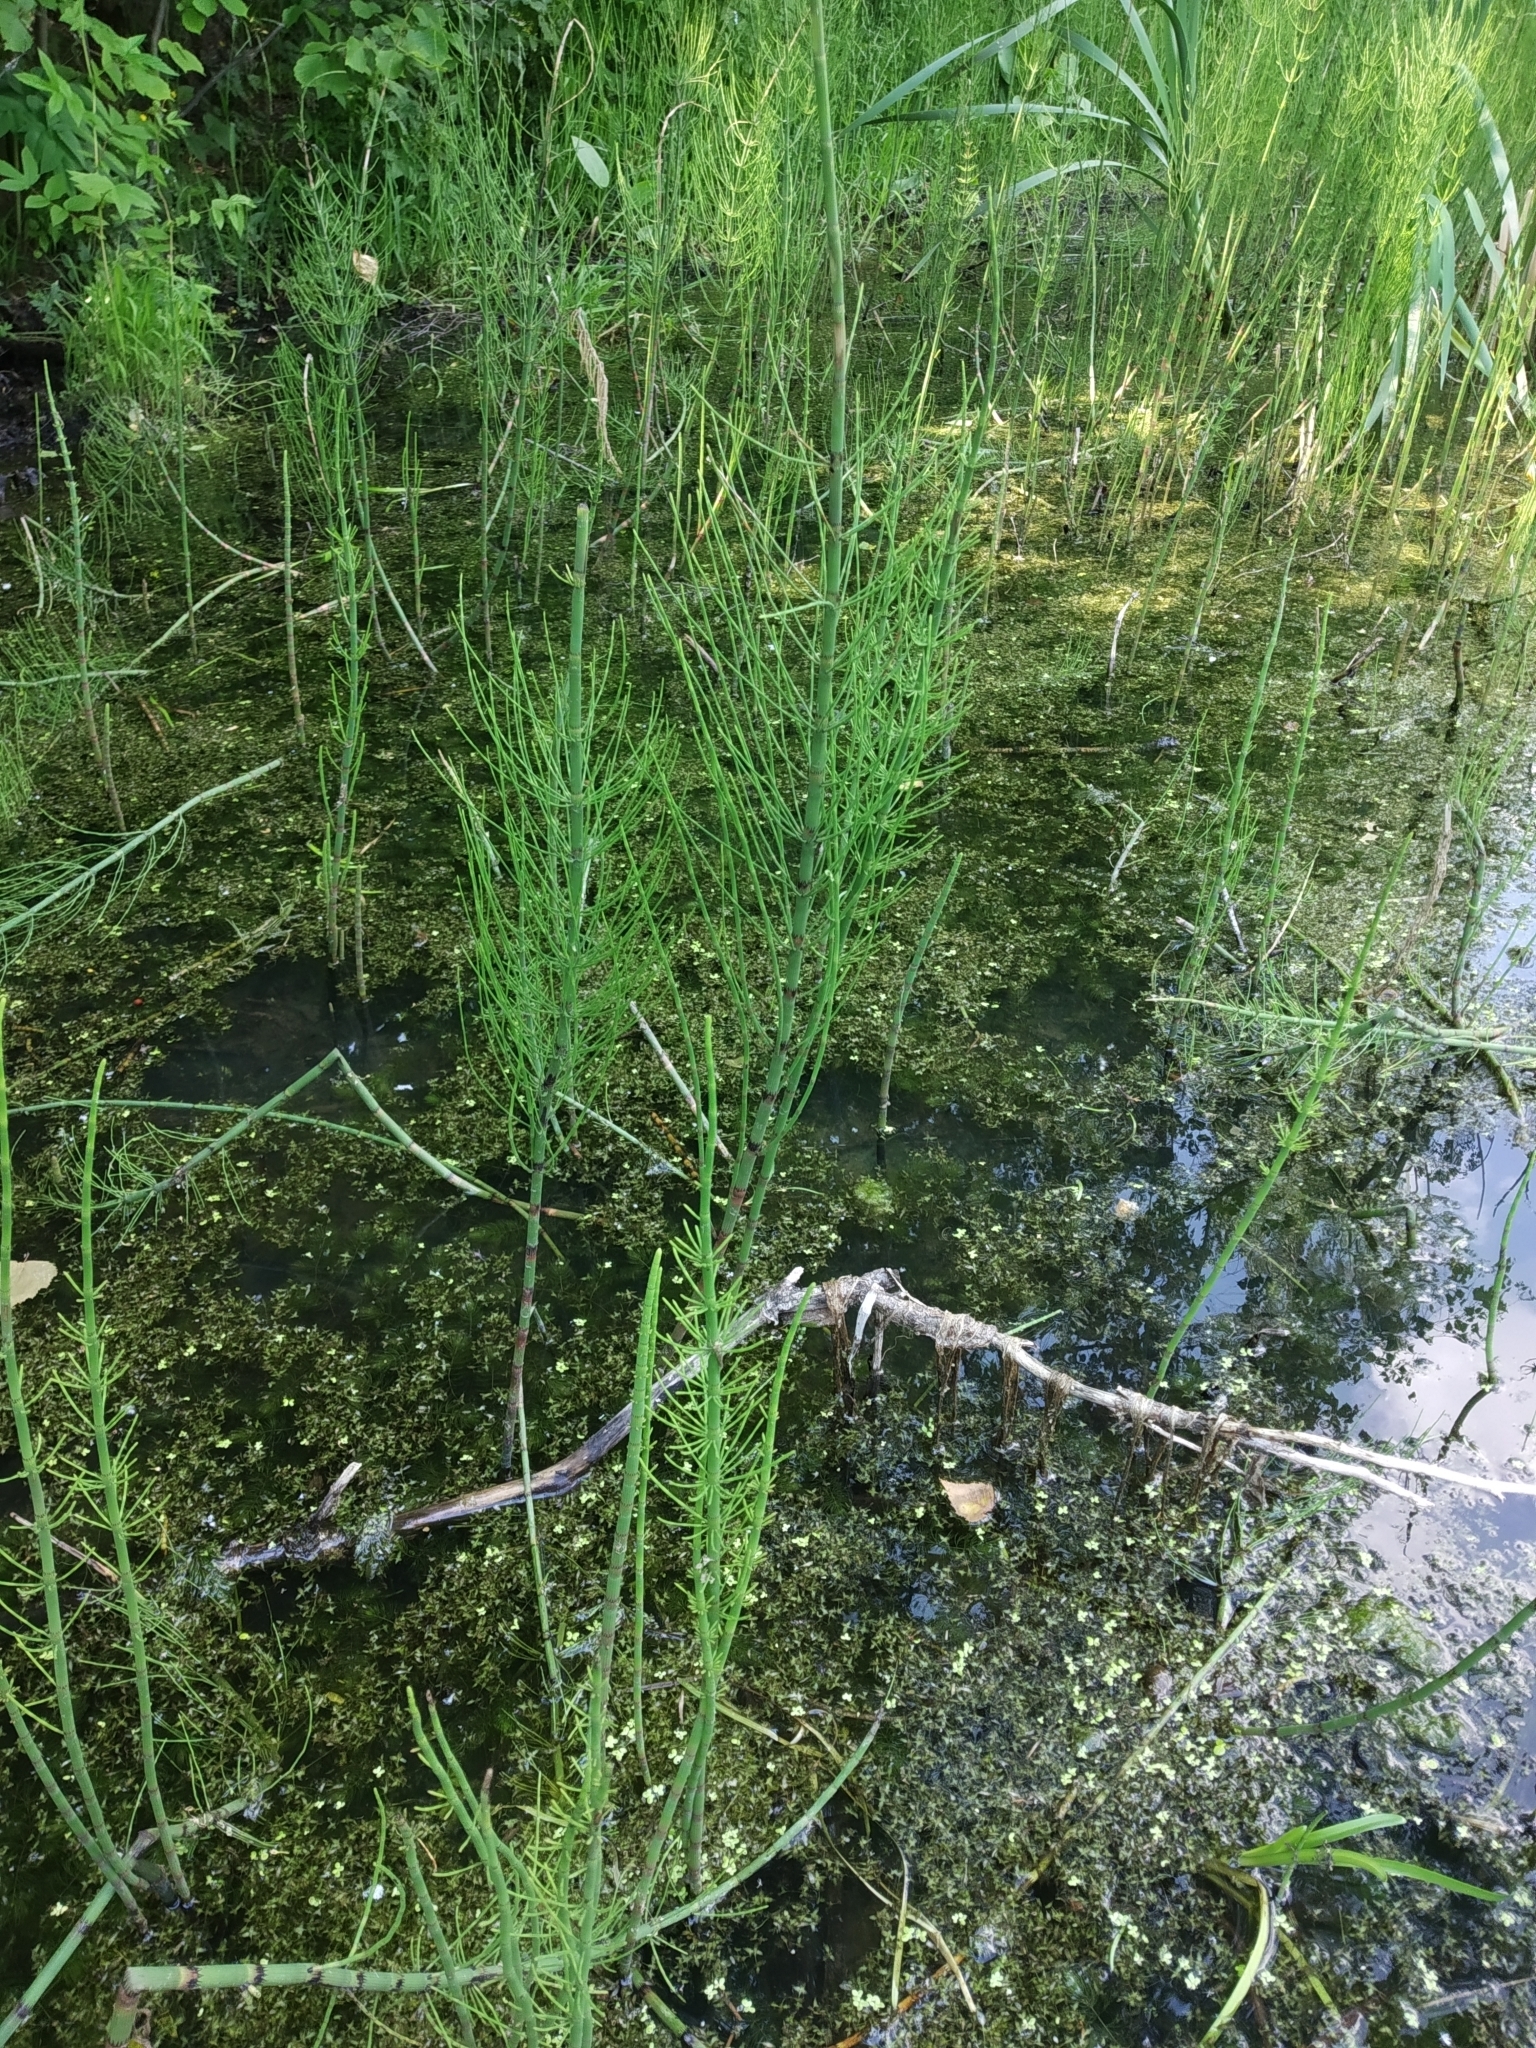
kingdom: Plantae
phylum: Tracheophyta
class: Polypodiopsida
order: Equisetales
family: Equisetaceae
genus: Equisetum
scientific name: Equisetum fluviatile
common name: Water horsetail
